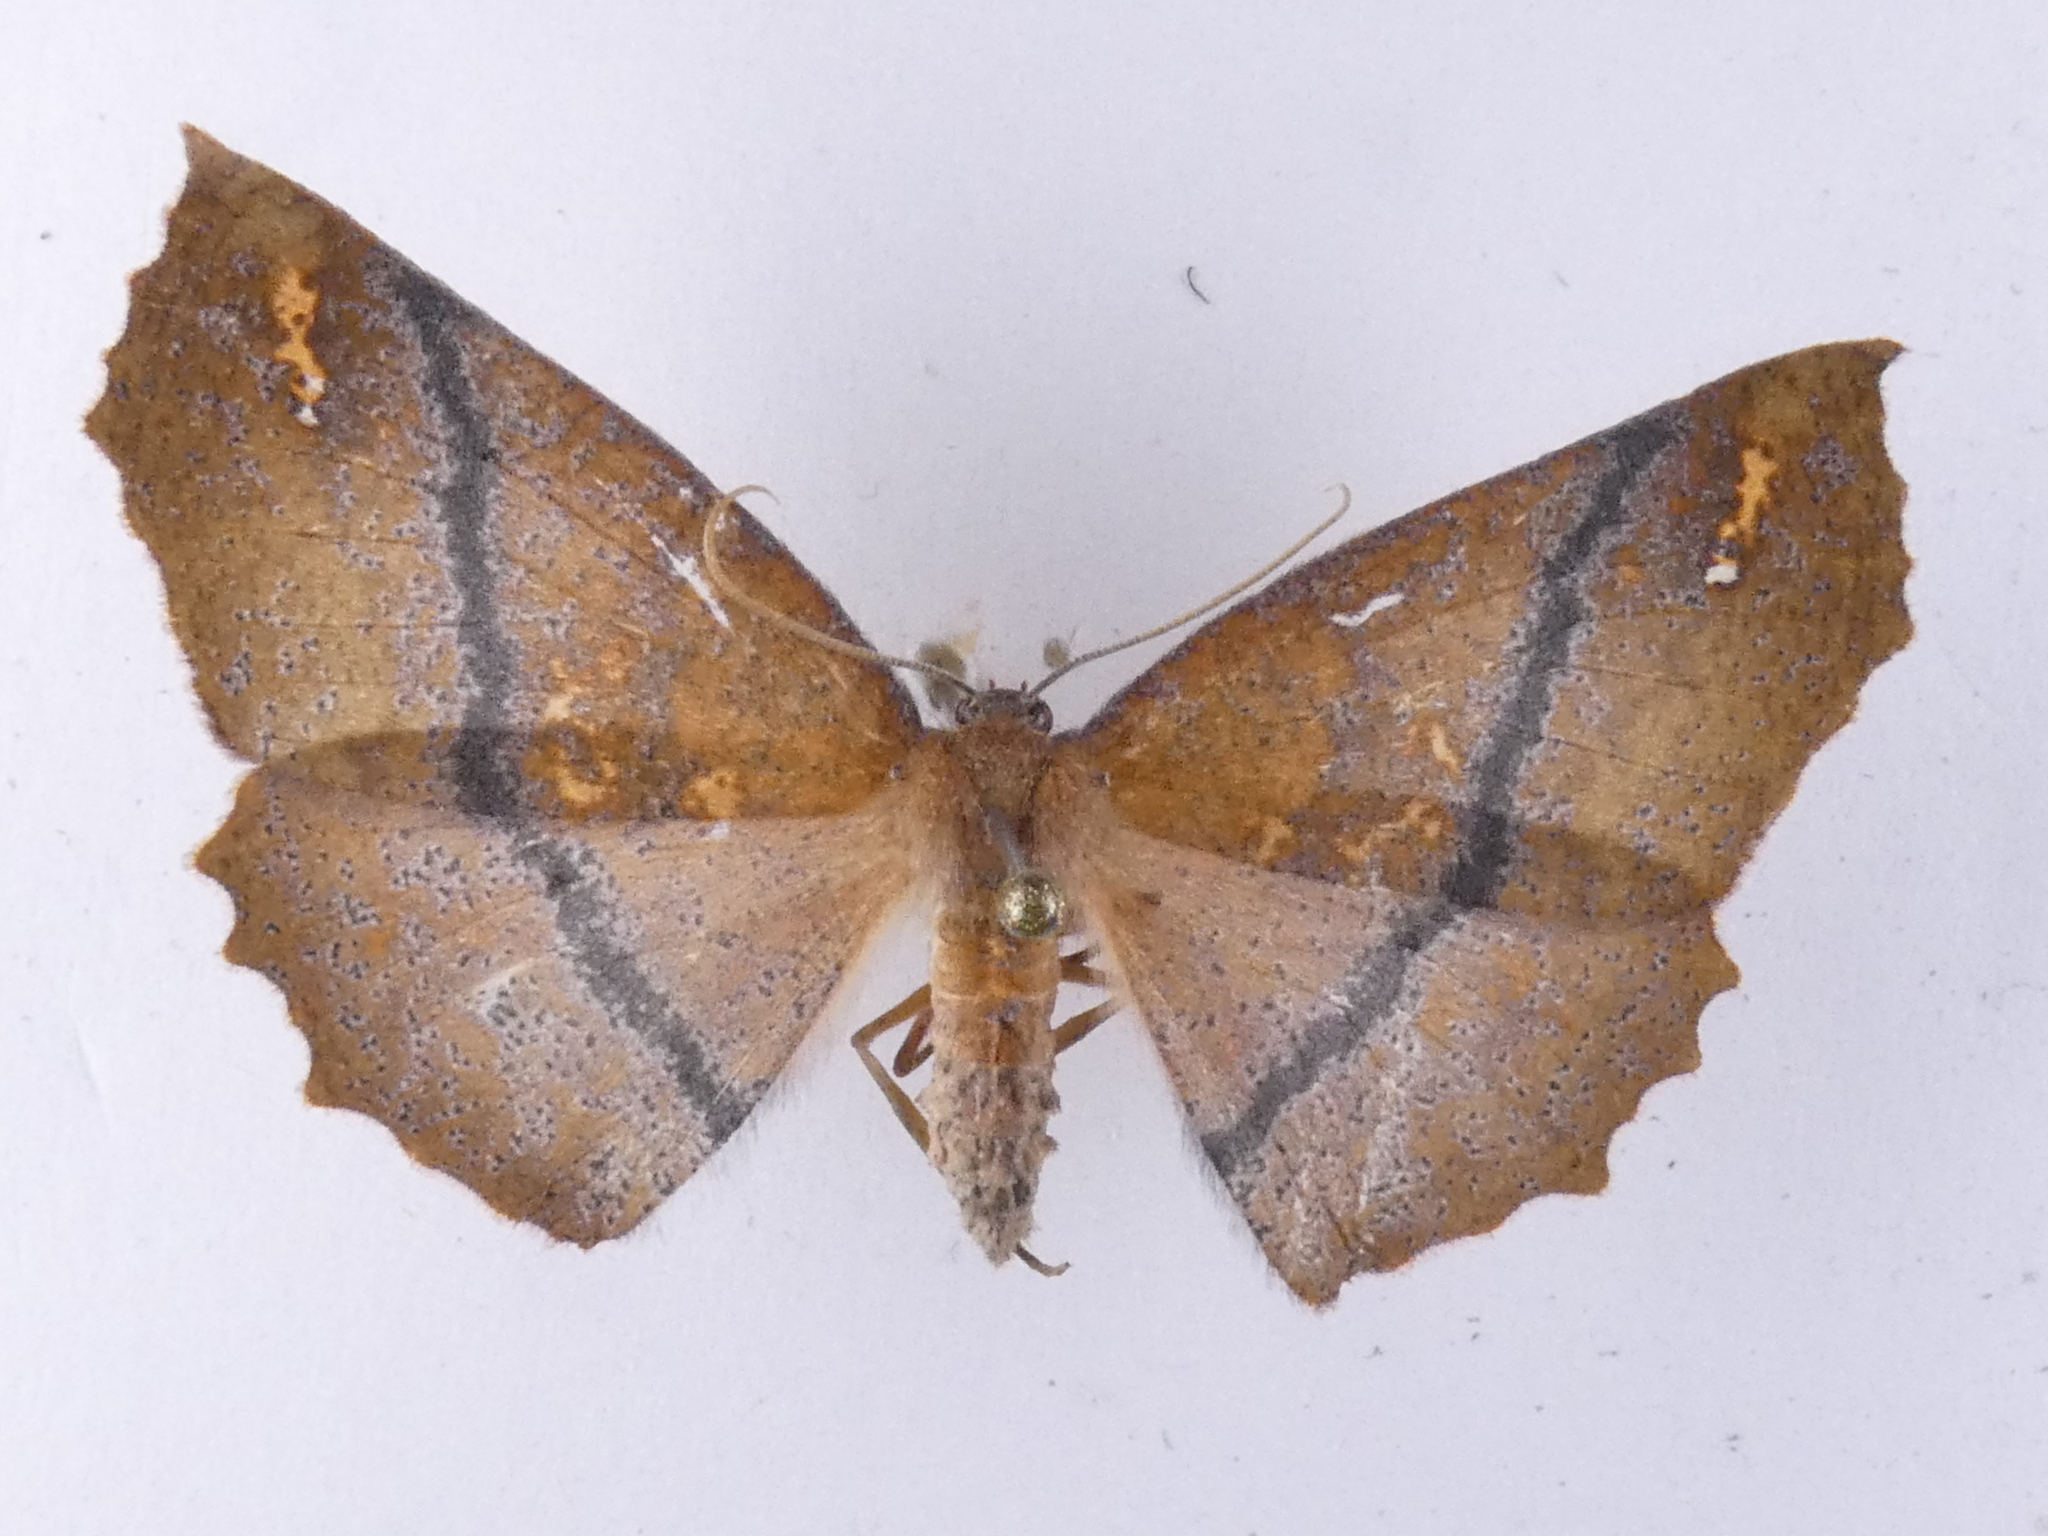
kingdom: Animalia
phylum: Arthropoda
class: Insecta
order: Lepidoptera
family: Geometridae
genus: Xyridacma
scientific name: Xyridacma ustaria
